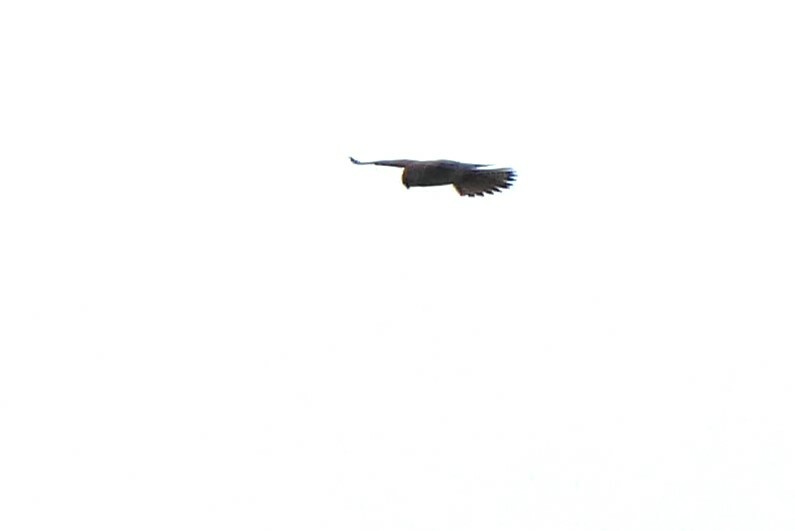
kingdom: Animalia
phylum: Chordata
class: Aves
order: Falconiformes
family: Falconidae
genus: Falco
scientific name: Falco cenchroides
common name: Nankeen kestrel
